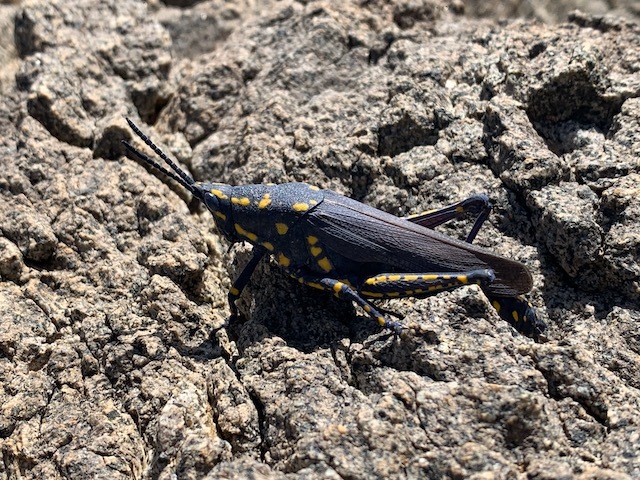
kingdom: Animalia
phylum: Arthropoda
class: Insecta
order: Orthoptera
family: Pyrgomorphidae
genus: Poekilocerus
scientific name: Poekilocerus bufonius
